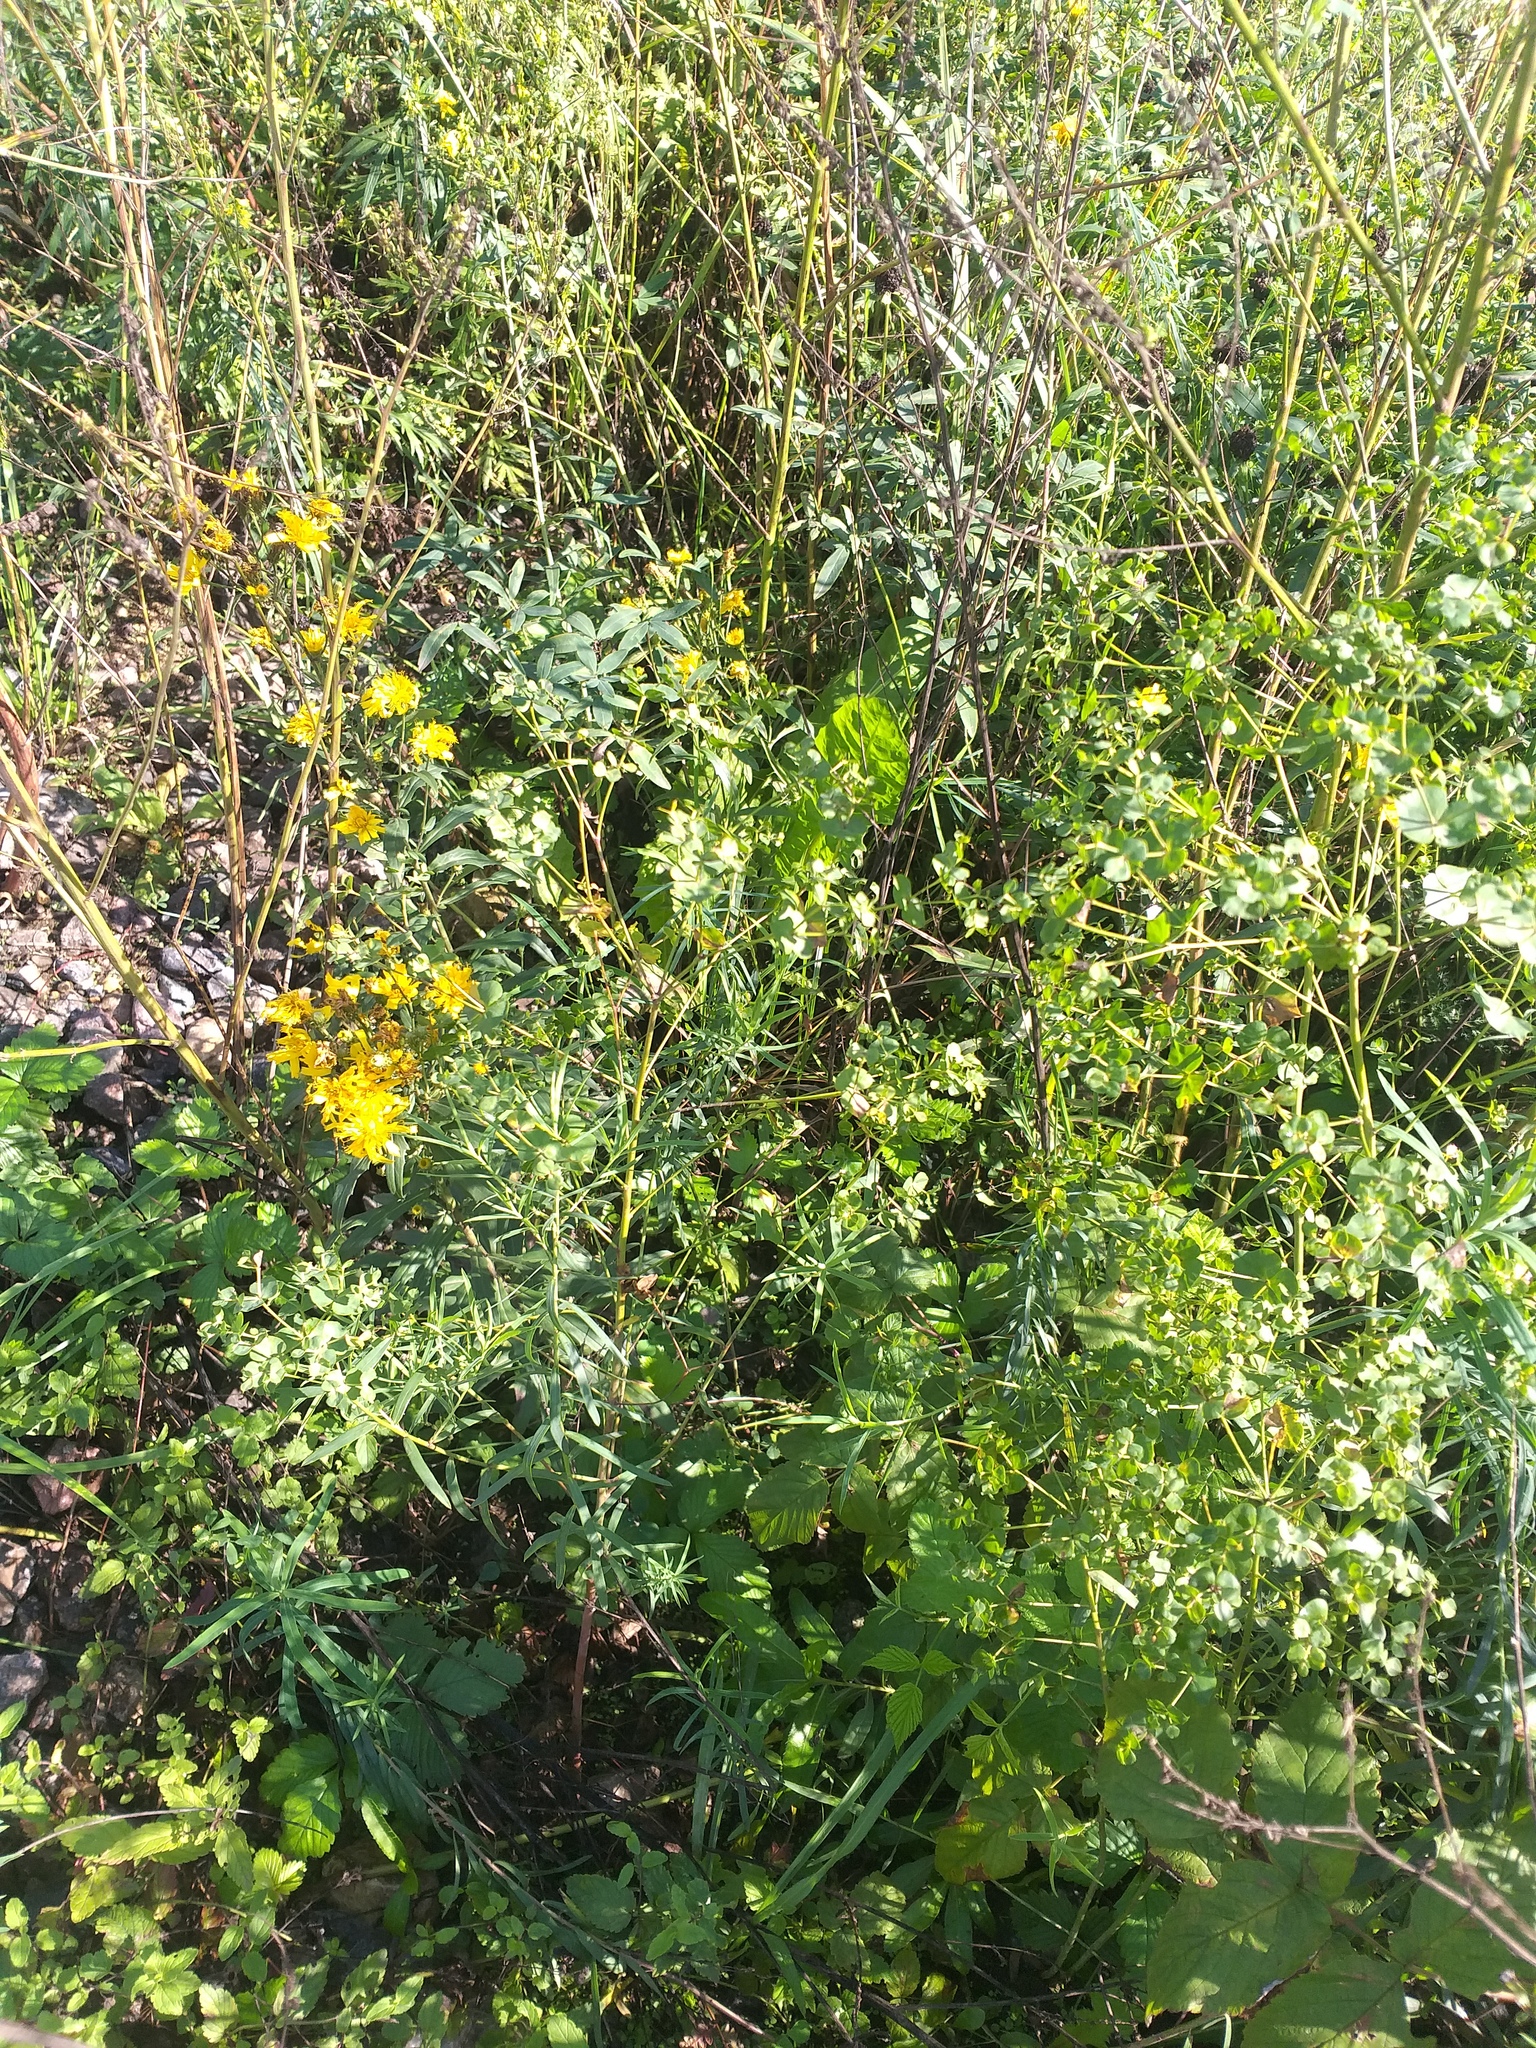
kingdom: Plantae
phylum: Tracheophyta
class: Magnoliopsida
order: Malpighiales
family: Euphorbiaceae
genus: Euphorbia
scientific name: Euphorbia virgata
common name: Leafy spurge
